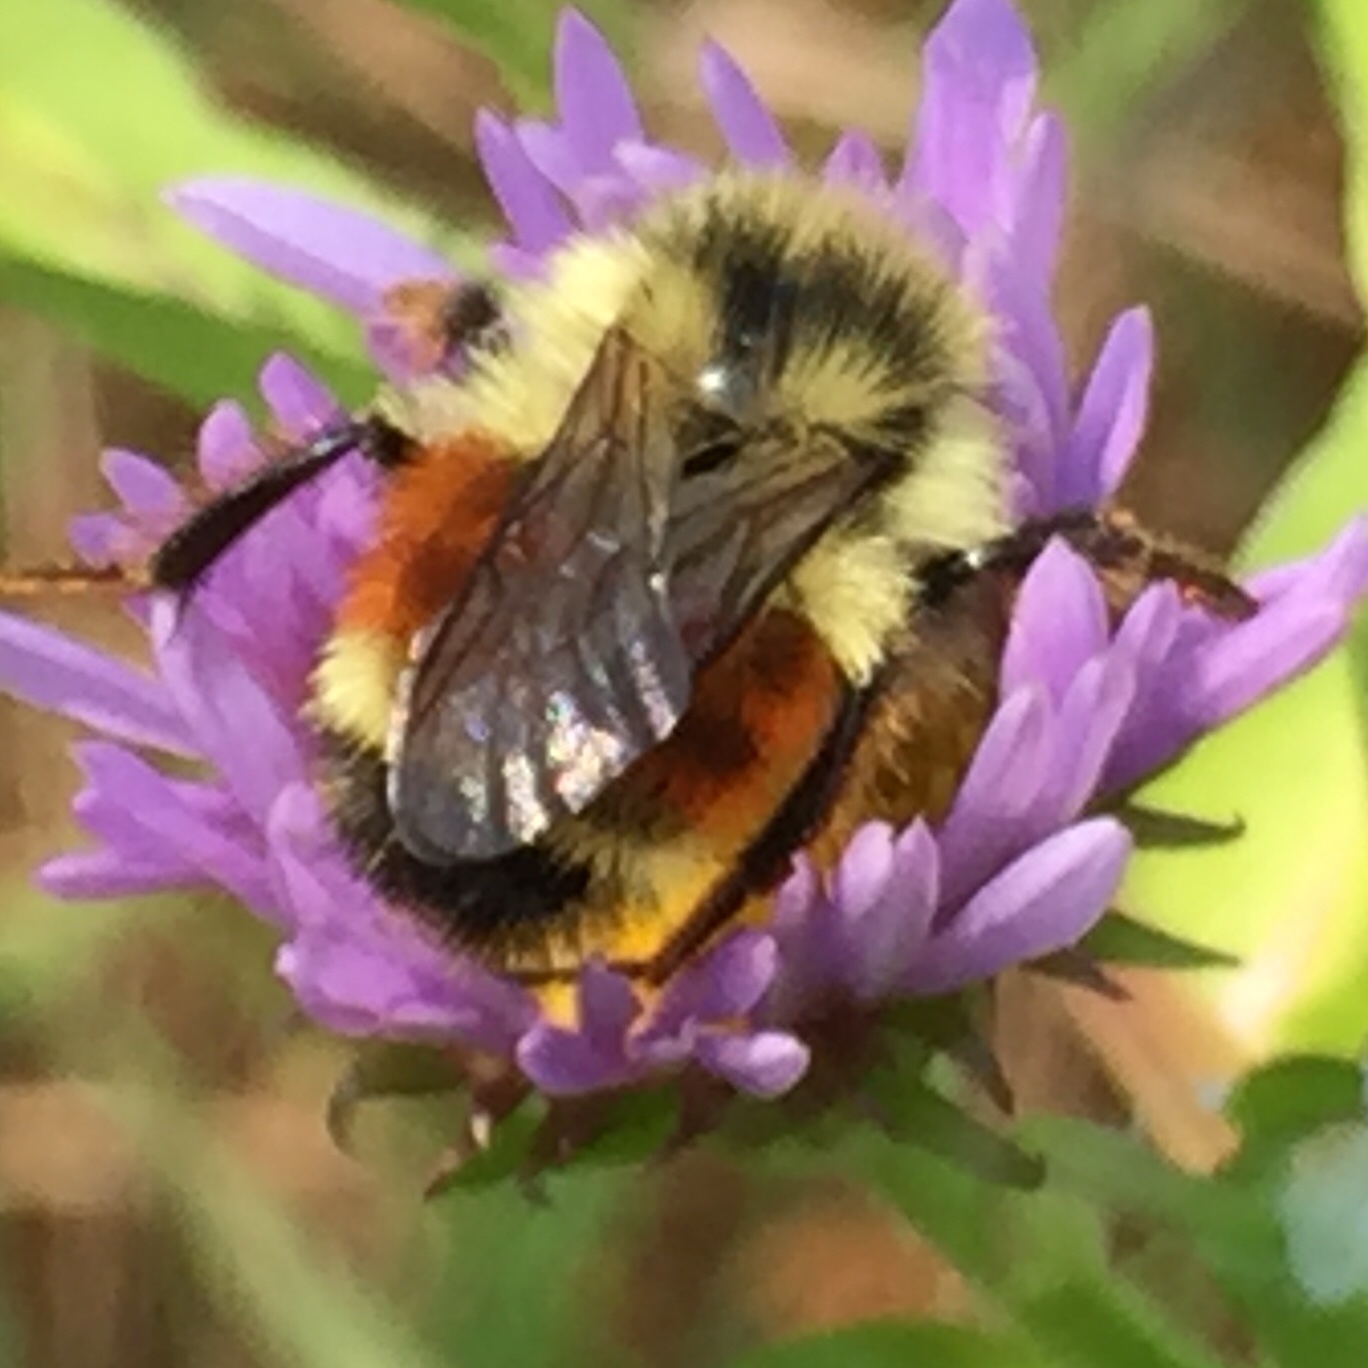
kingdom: Animalia
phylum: Arthropoda
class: Insecta
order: Hymenoptera
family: Apidae
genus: Bombus
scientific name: Bombus ternarius
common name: Tri-colored bumble bee
